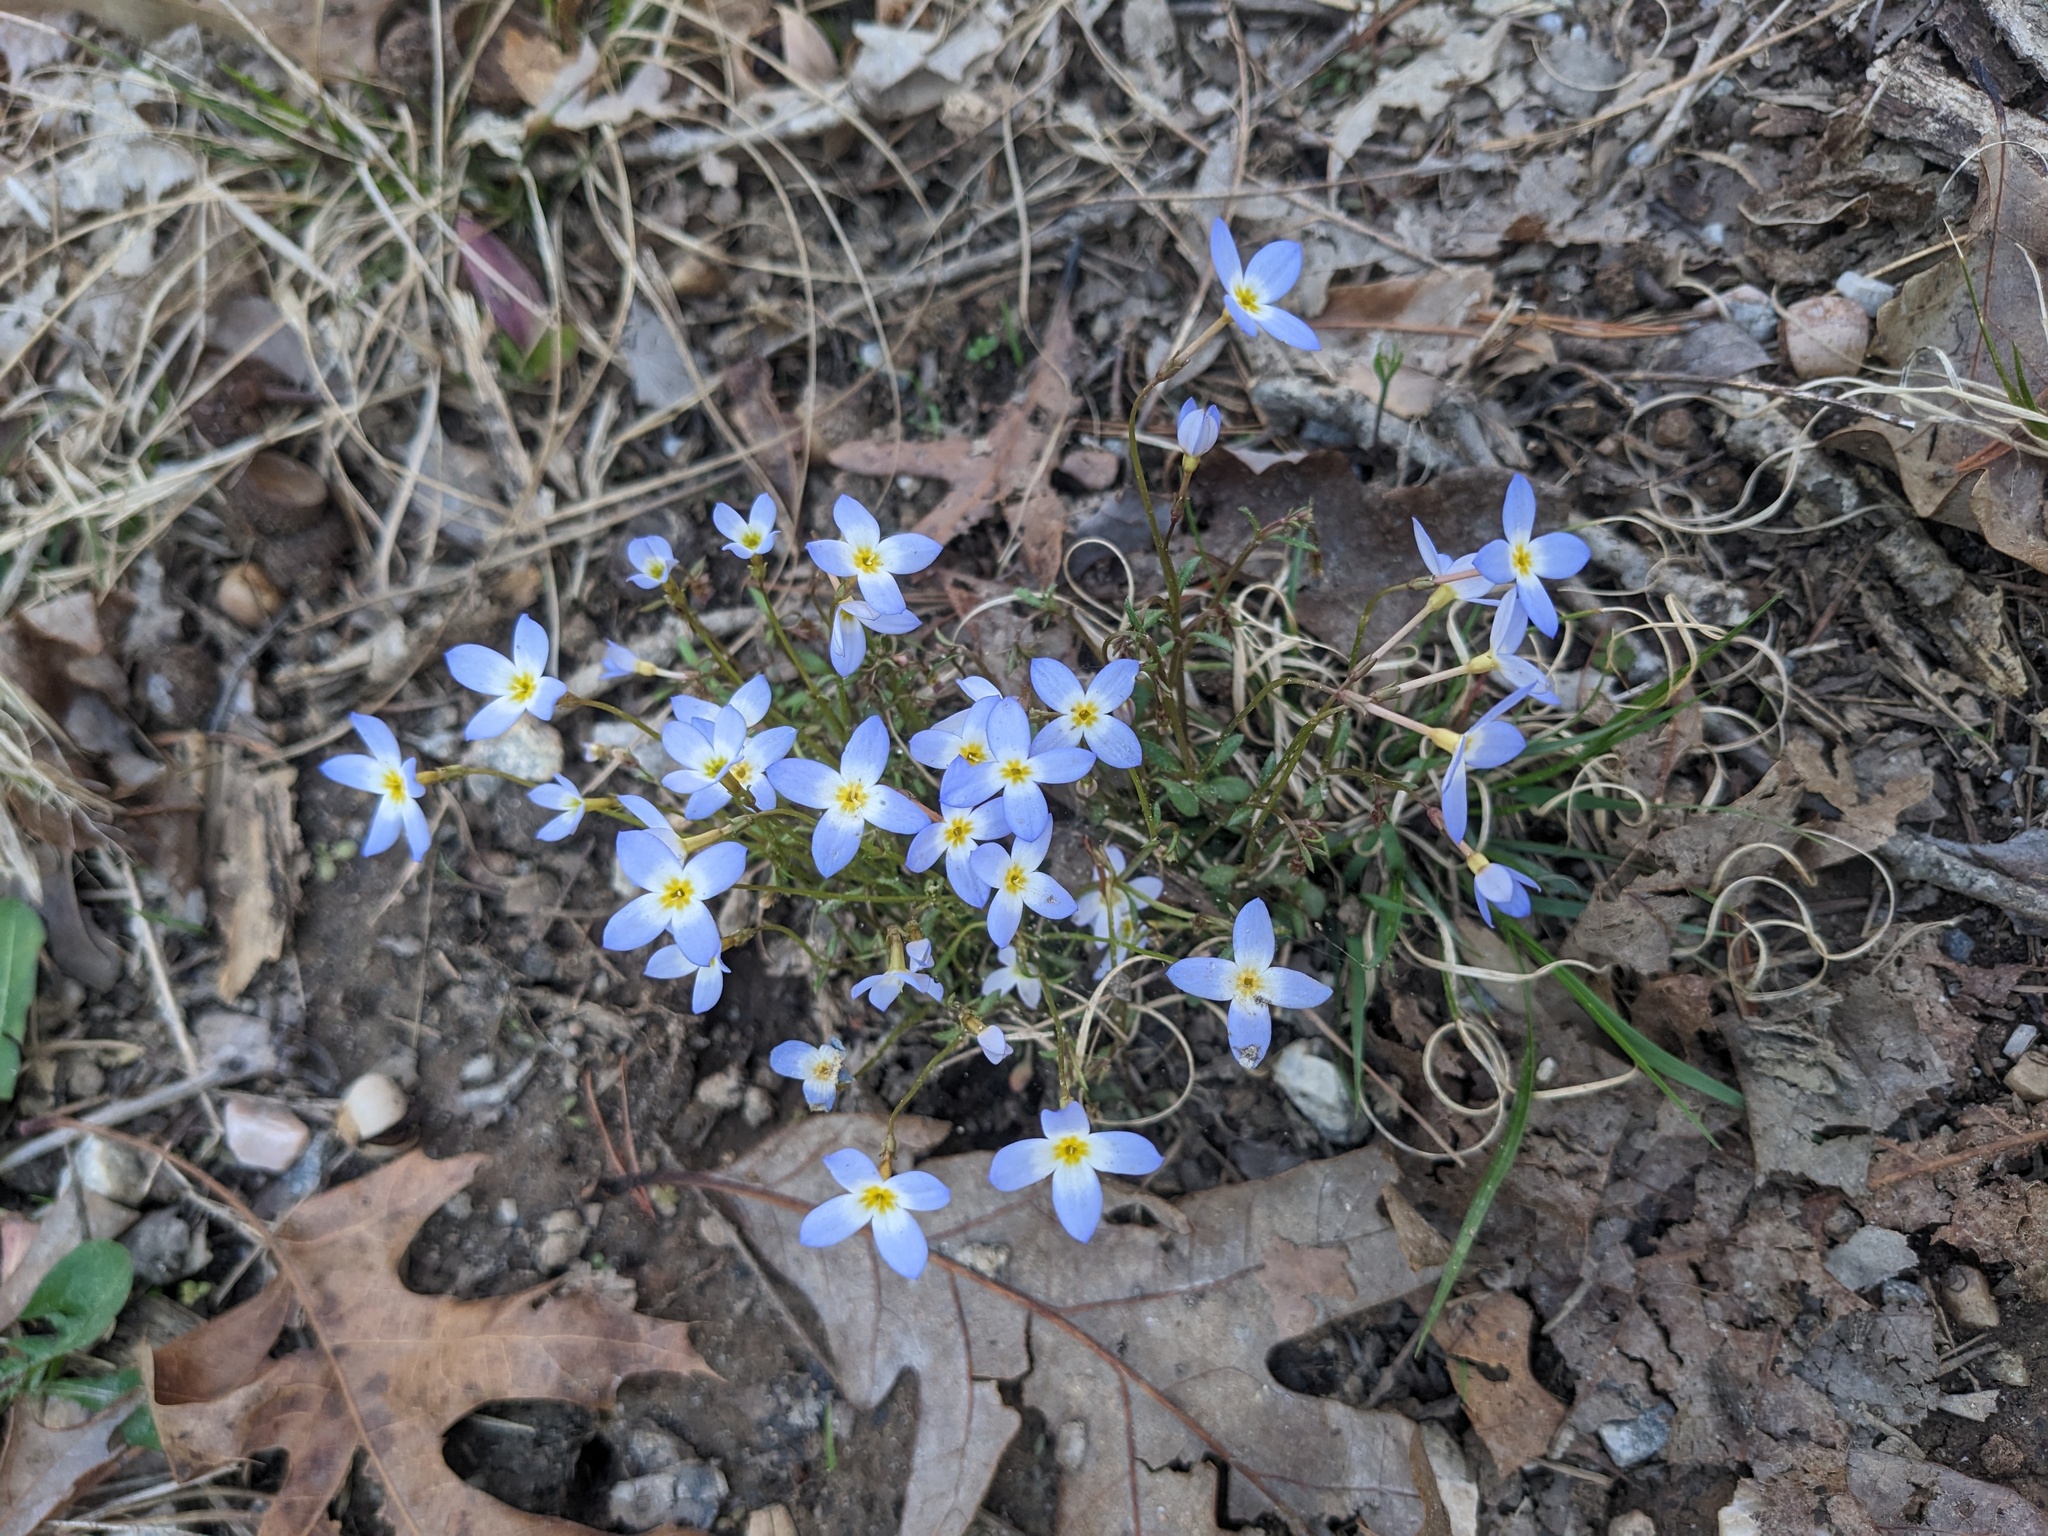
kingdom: Plantae
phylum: Tracheophyta
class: Magnoliopsida
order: Gentianales
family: Rubiaceae
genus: Houstonia
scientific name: Houstonia caerulea
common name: Bluets
